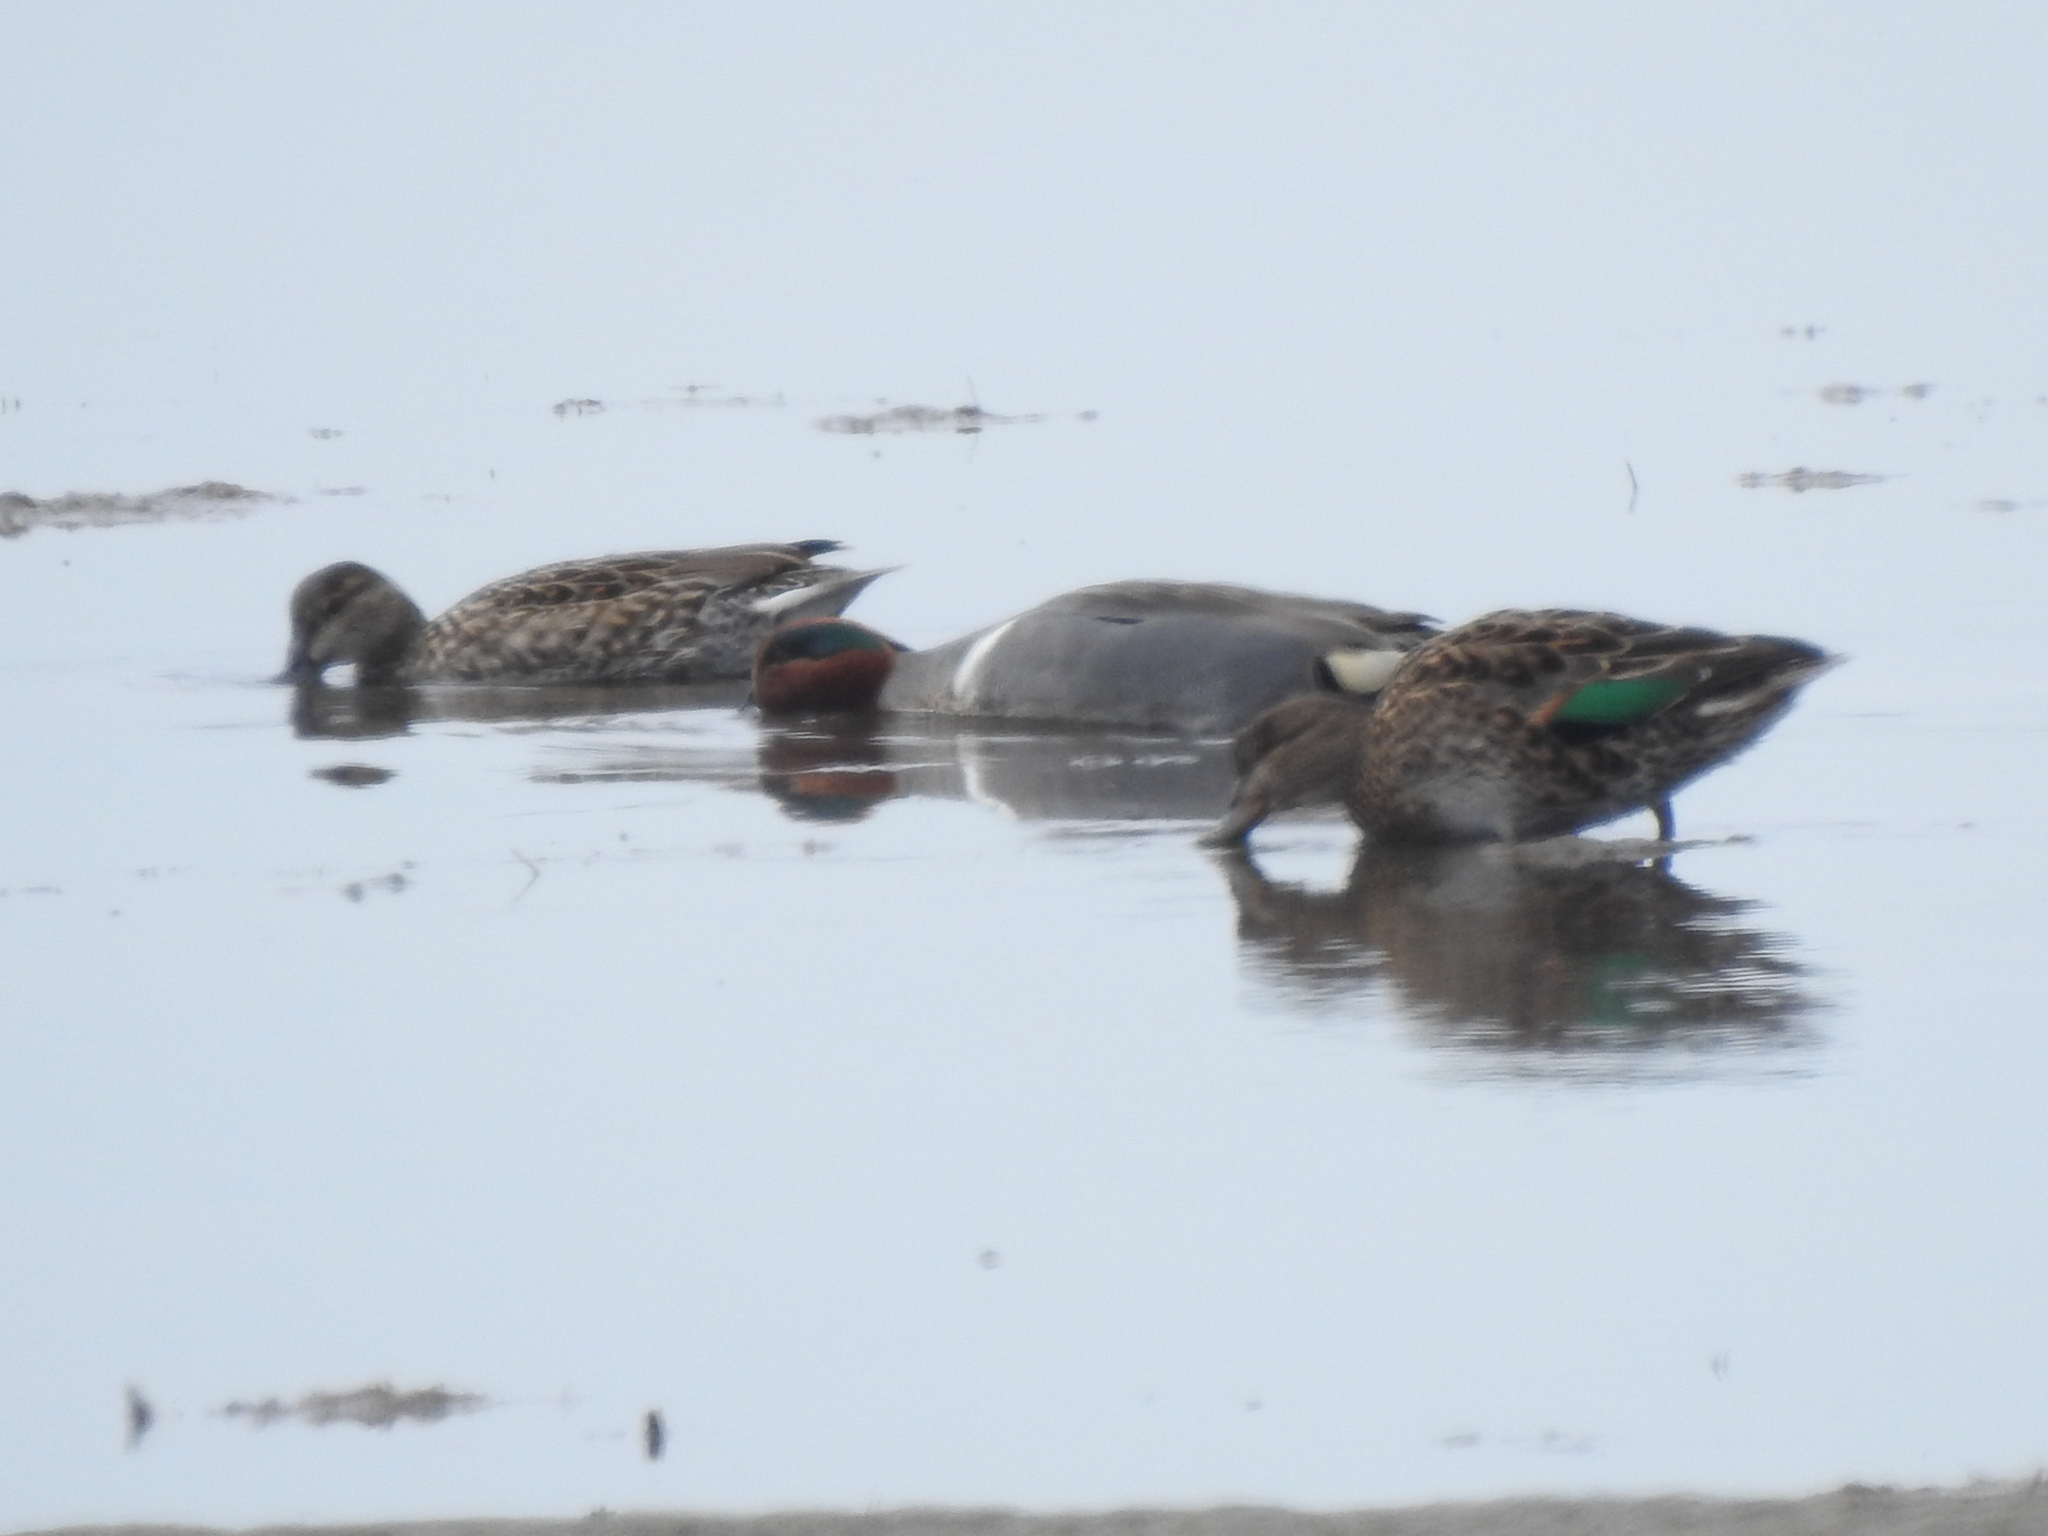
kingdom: Animalia
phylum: Chordata
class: Aves
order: Anseriformes
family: Anatidae
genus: Anas
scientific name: Anas crecca
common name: Eurasian teal
